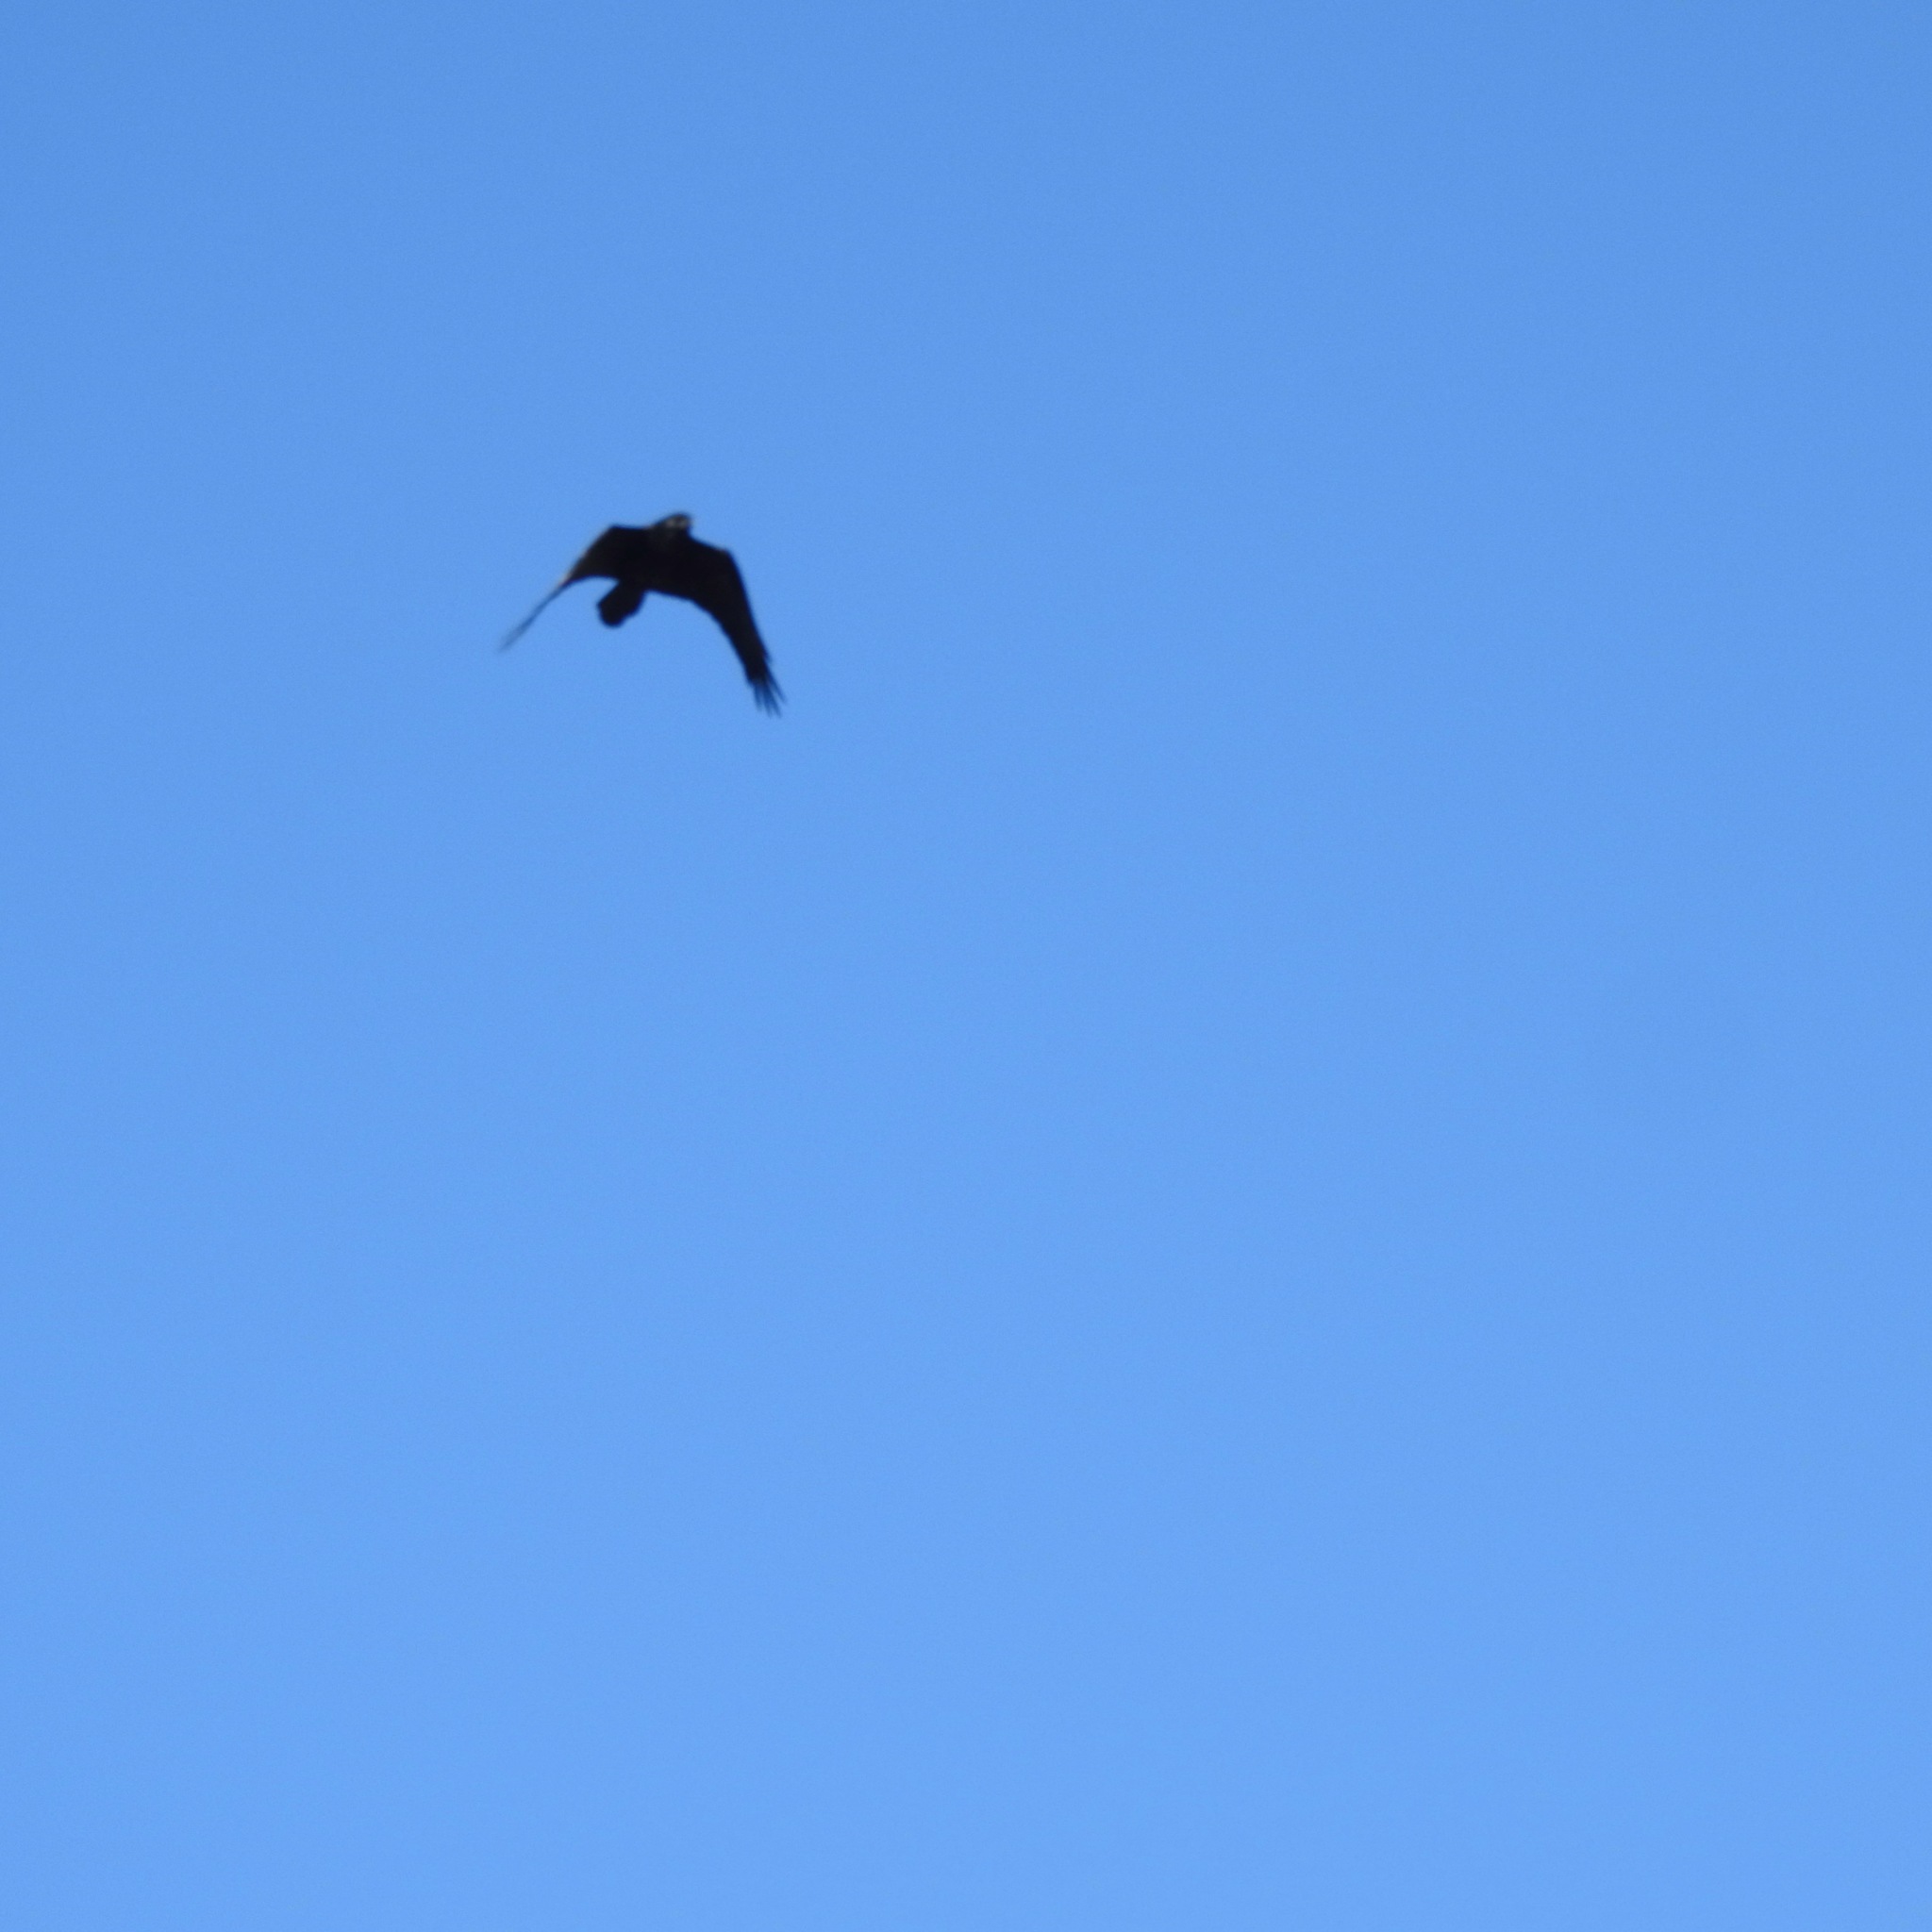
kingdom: Animalia
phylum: Chordata
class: Aves
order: Passeriformes
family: Corvidae
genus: Corvus
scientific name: Corvus corax
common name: Common raven
